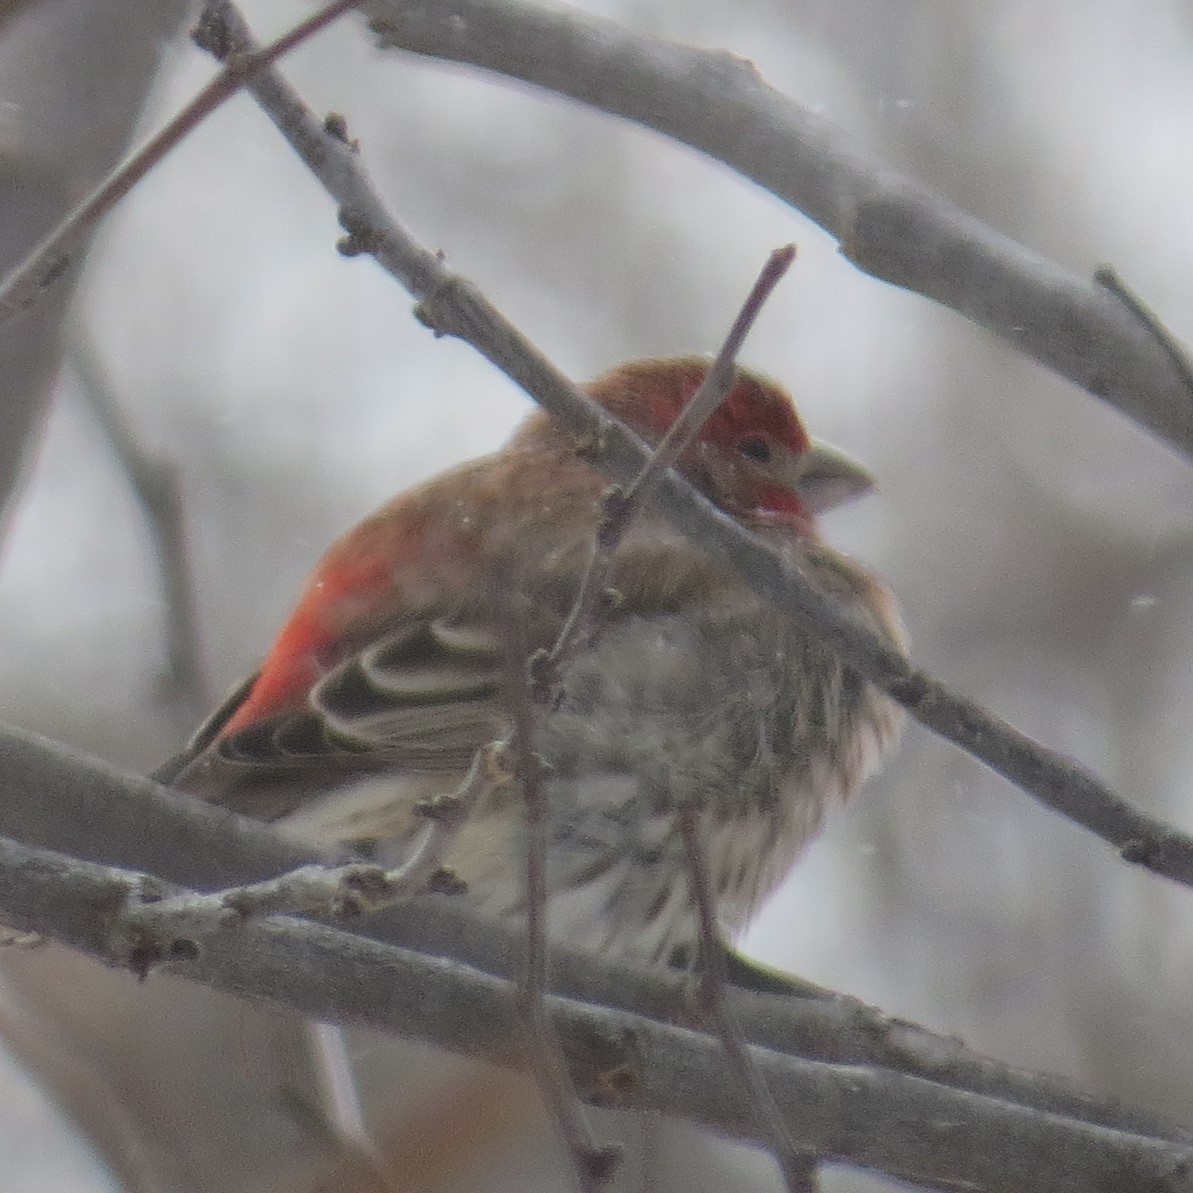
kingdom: Animalia
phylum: Chordata
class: Aves
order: Passeriformes
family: Fringillidae
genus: Haemorhous
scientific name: Haemorhous mexicanus
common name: House finch
